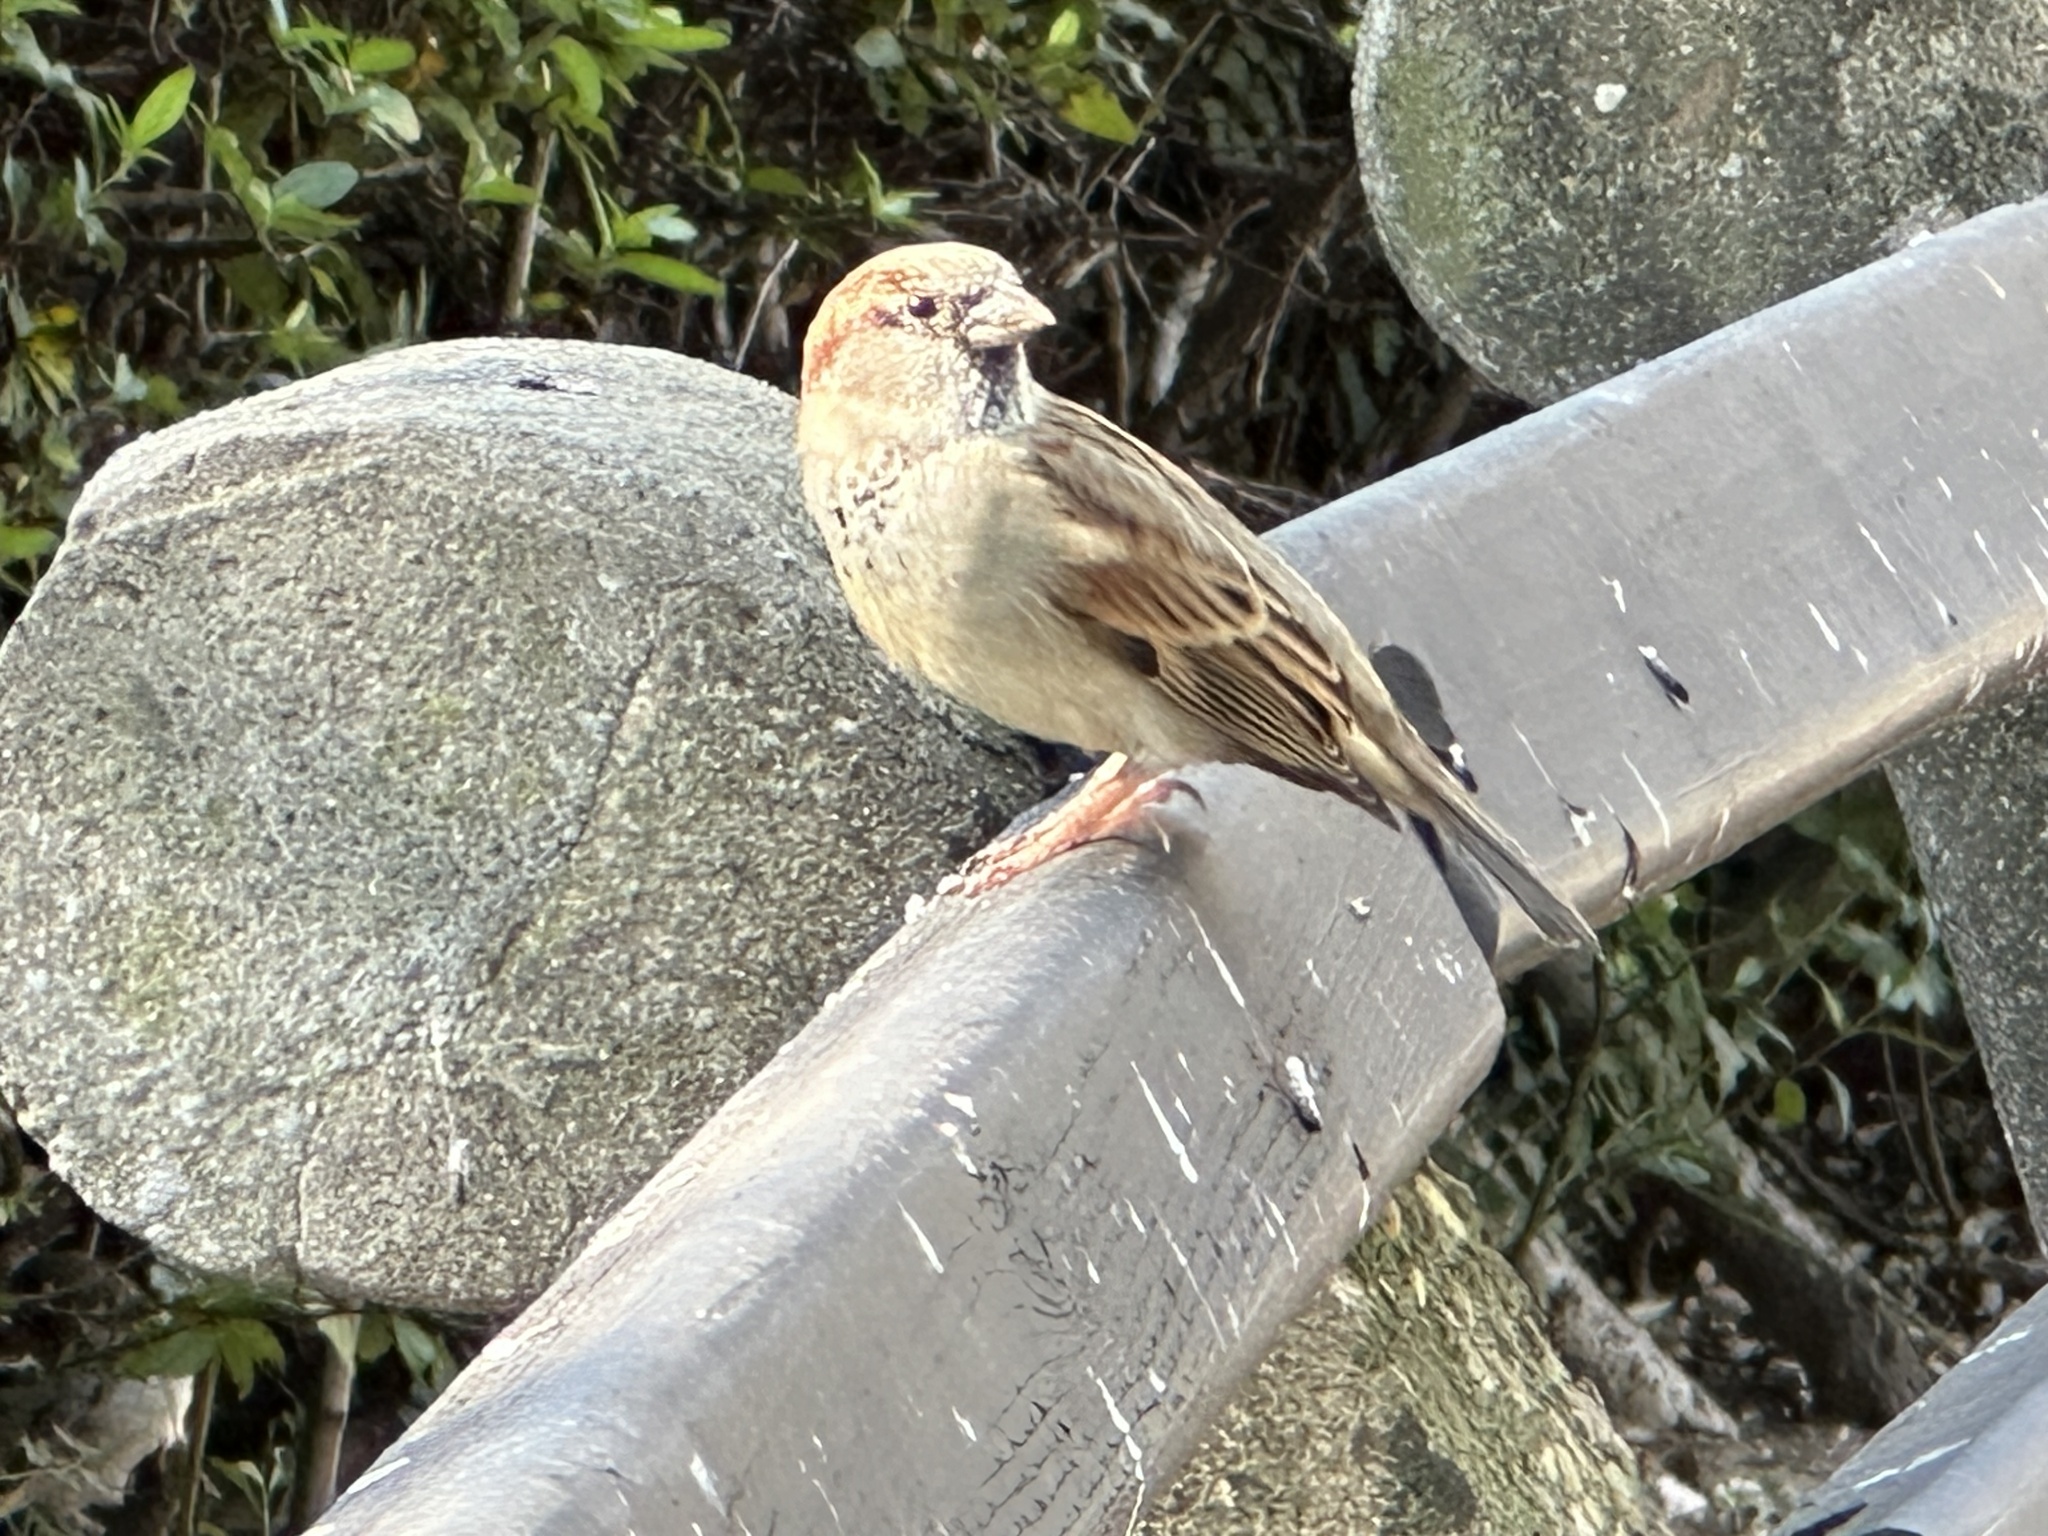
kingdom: Animalia
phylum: Chordata
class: Aves
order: Passeriformes
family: Passeridae
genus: Passer
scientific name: Passer domesticus
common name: House sparrow
